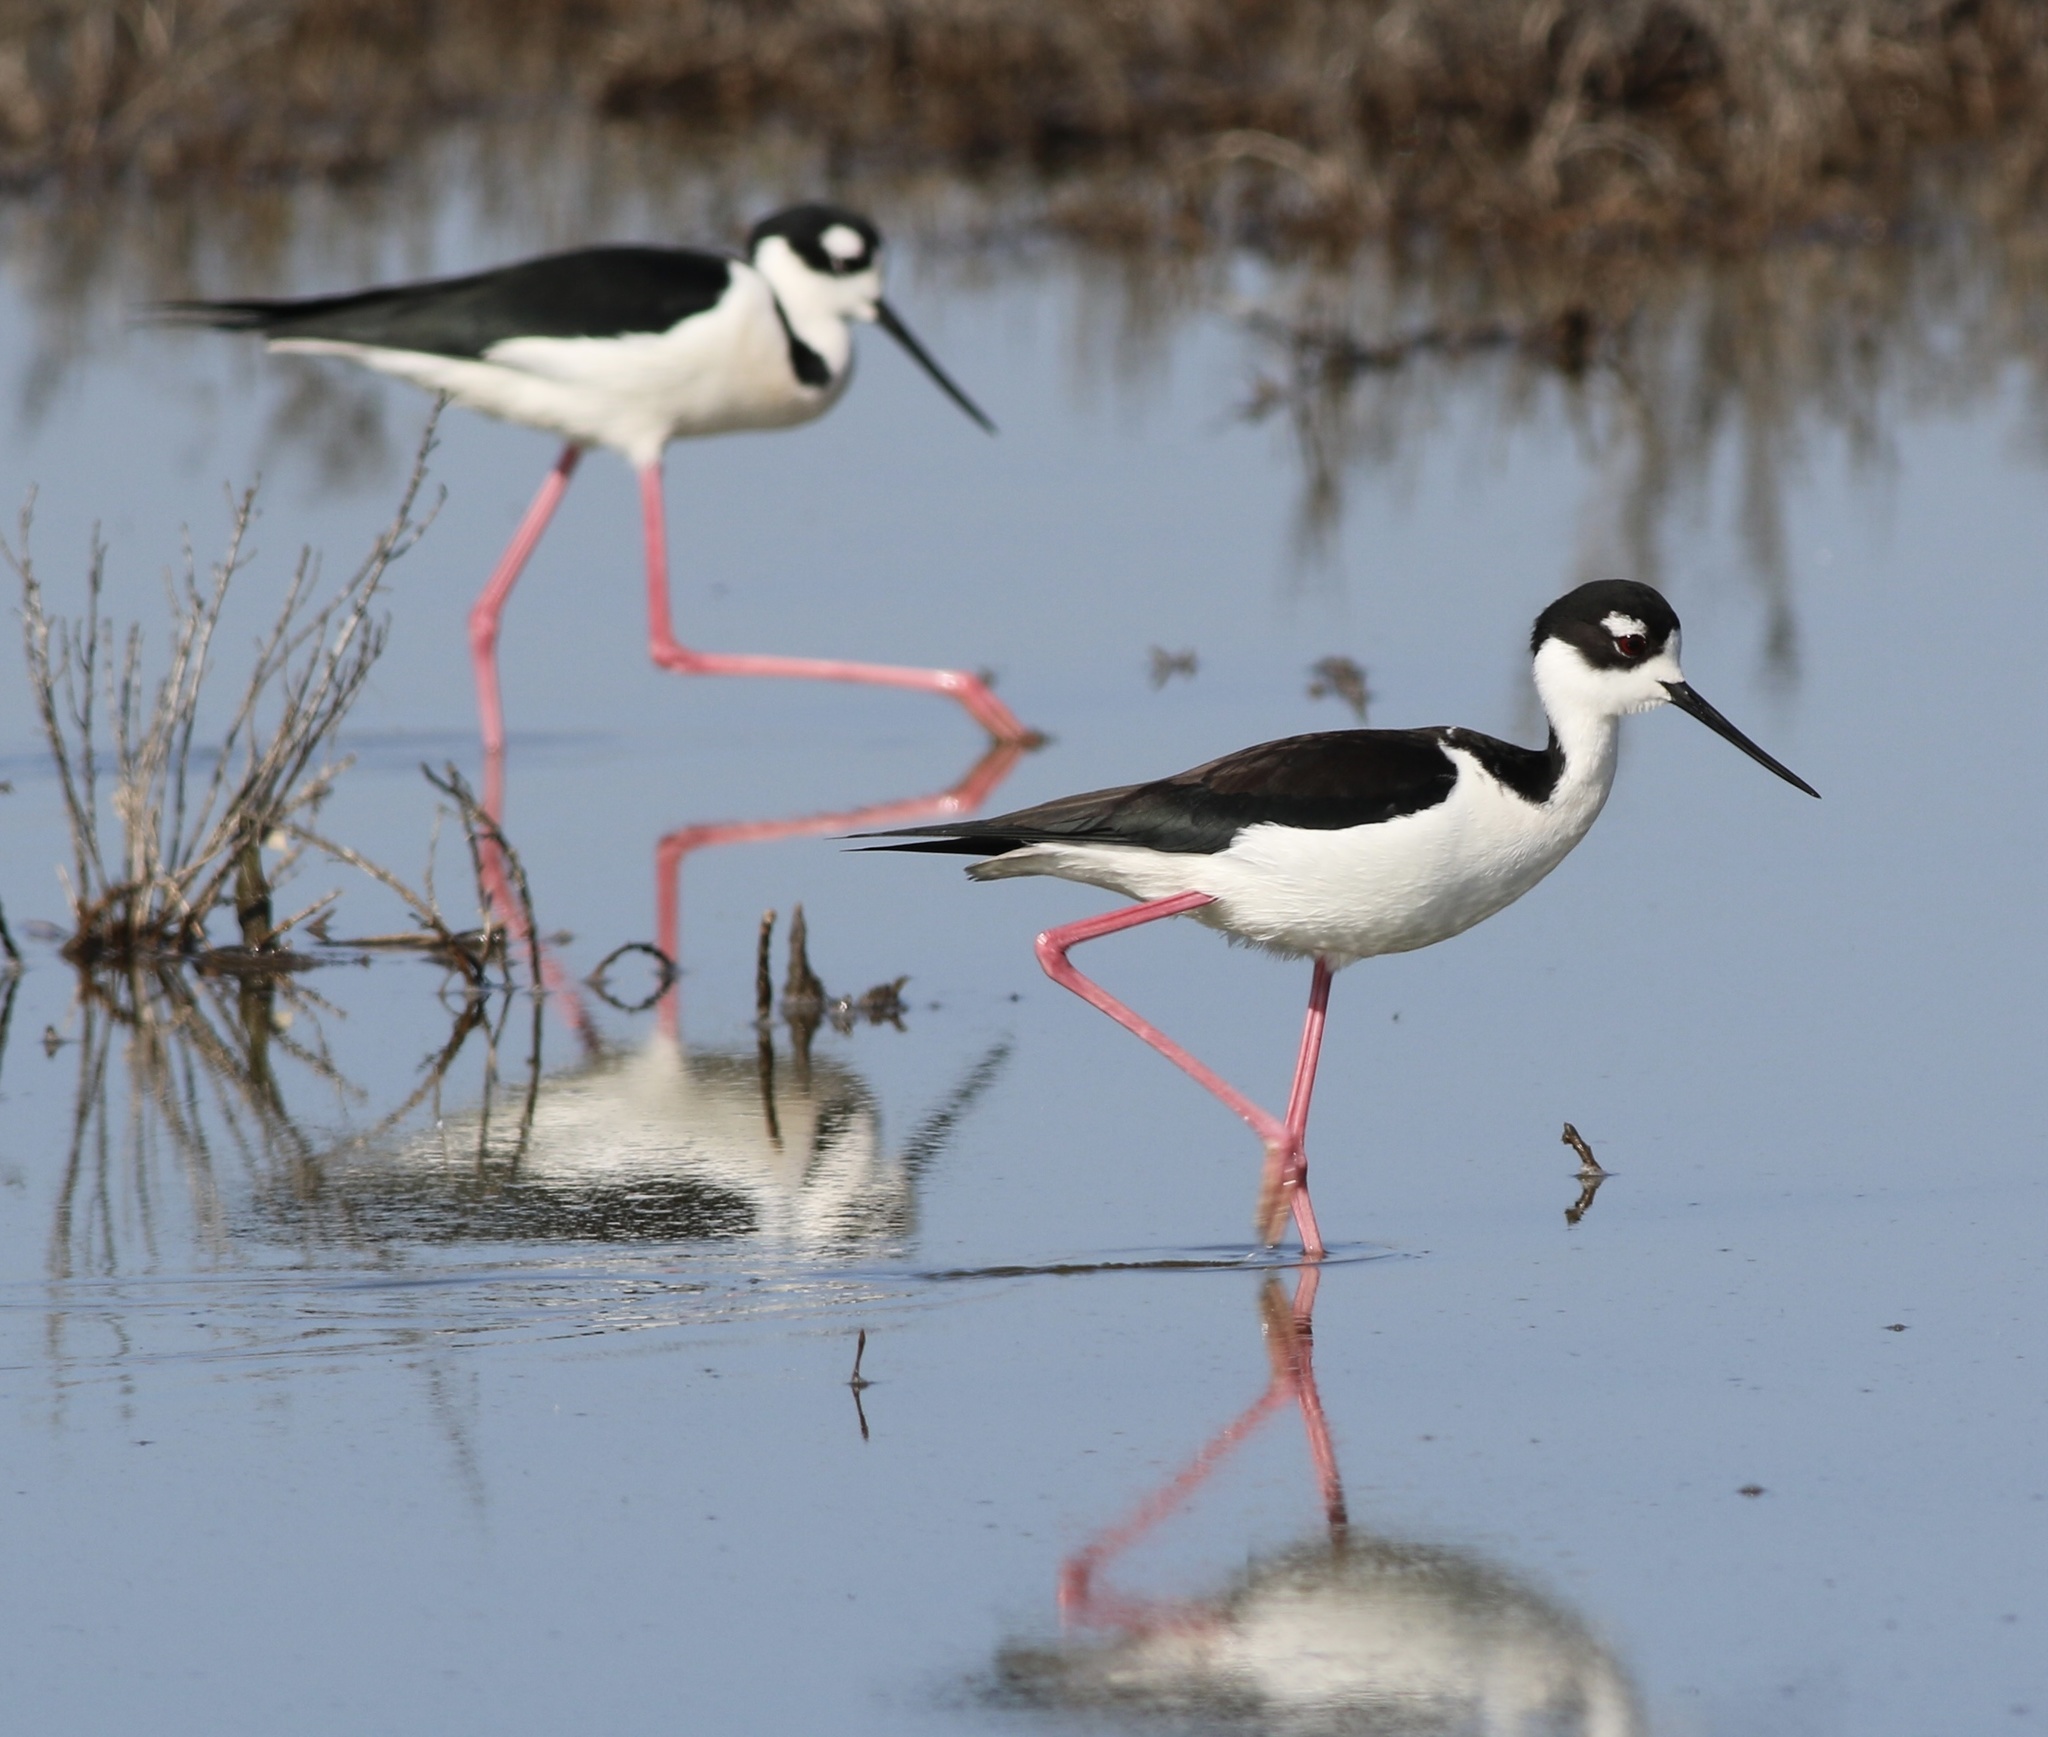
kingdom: Animalia
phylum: Chordata
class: Aves
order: Charadriiformes
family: Recurvirostridae
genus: Himantopus
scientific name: Himantopus mexicanus
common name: Black-necked stilt
